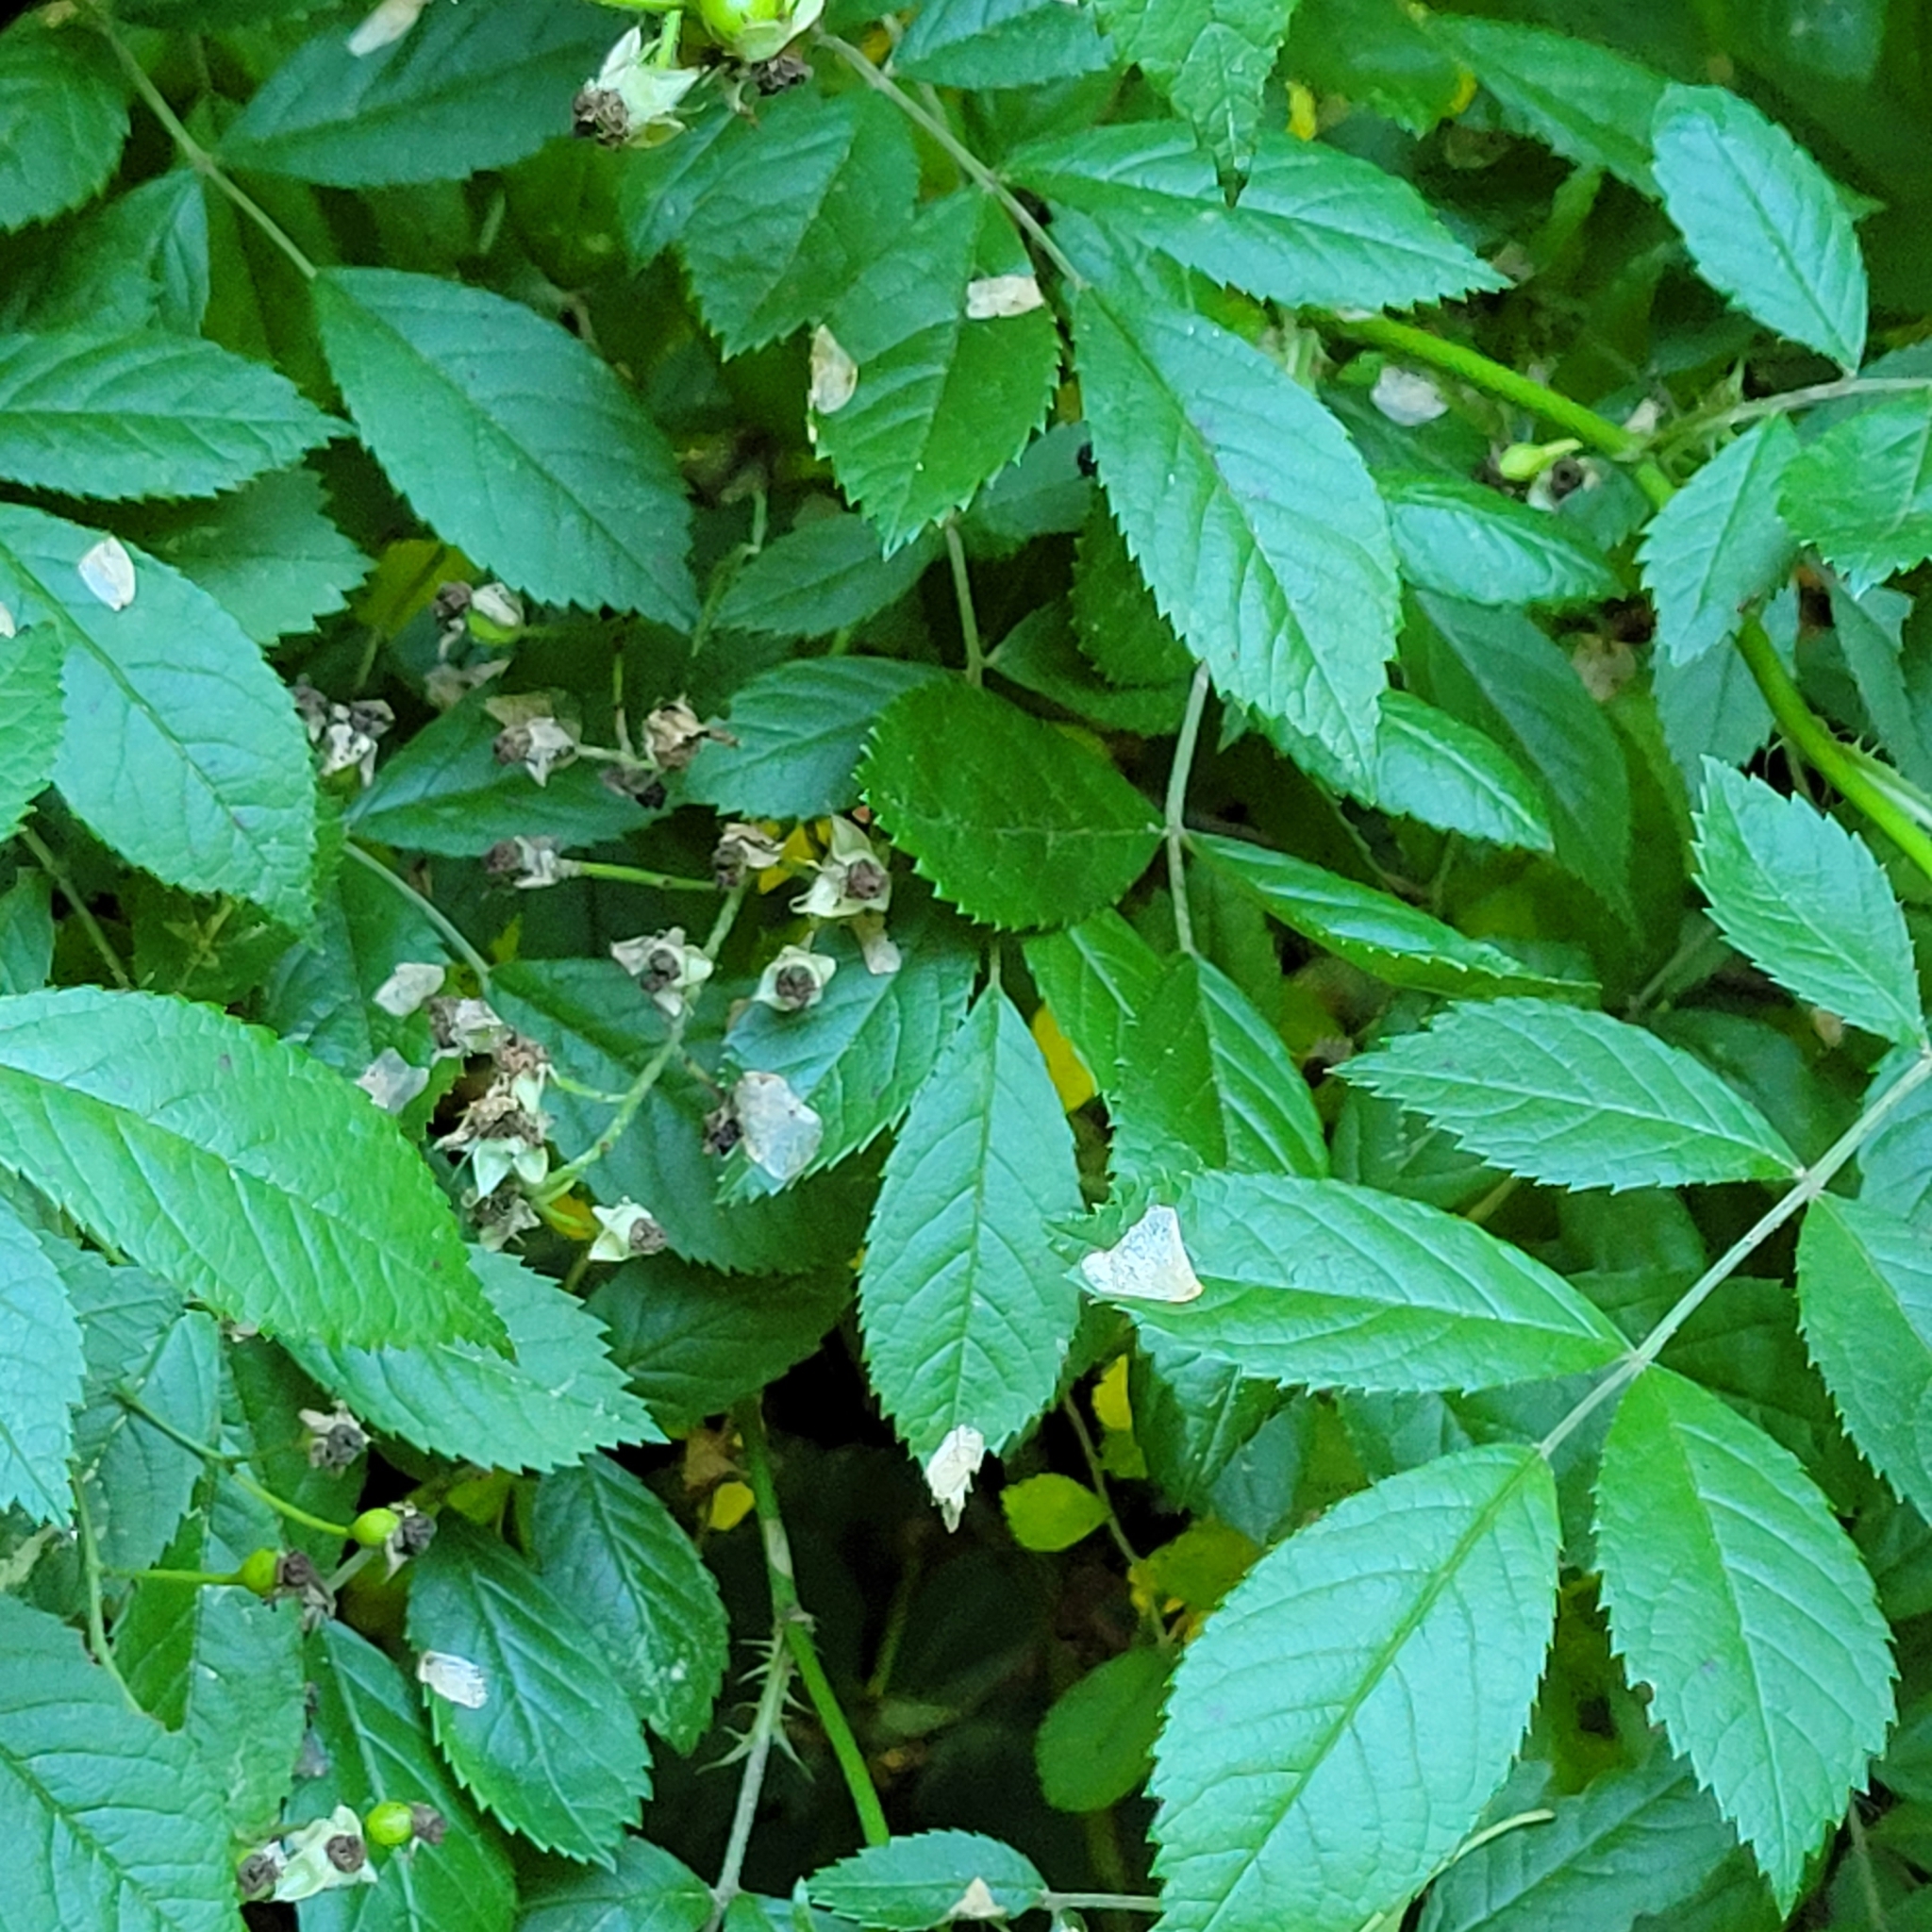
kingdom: Plantae
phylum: Tracheophyta
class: Magnoliopsida
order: Rosales
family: Rosaceae
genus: Rosa
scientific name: Rosa multiflora
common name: Multiflora rose
